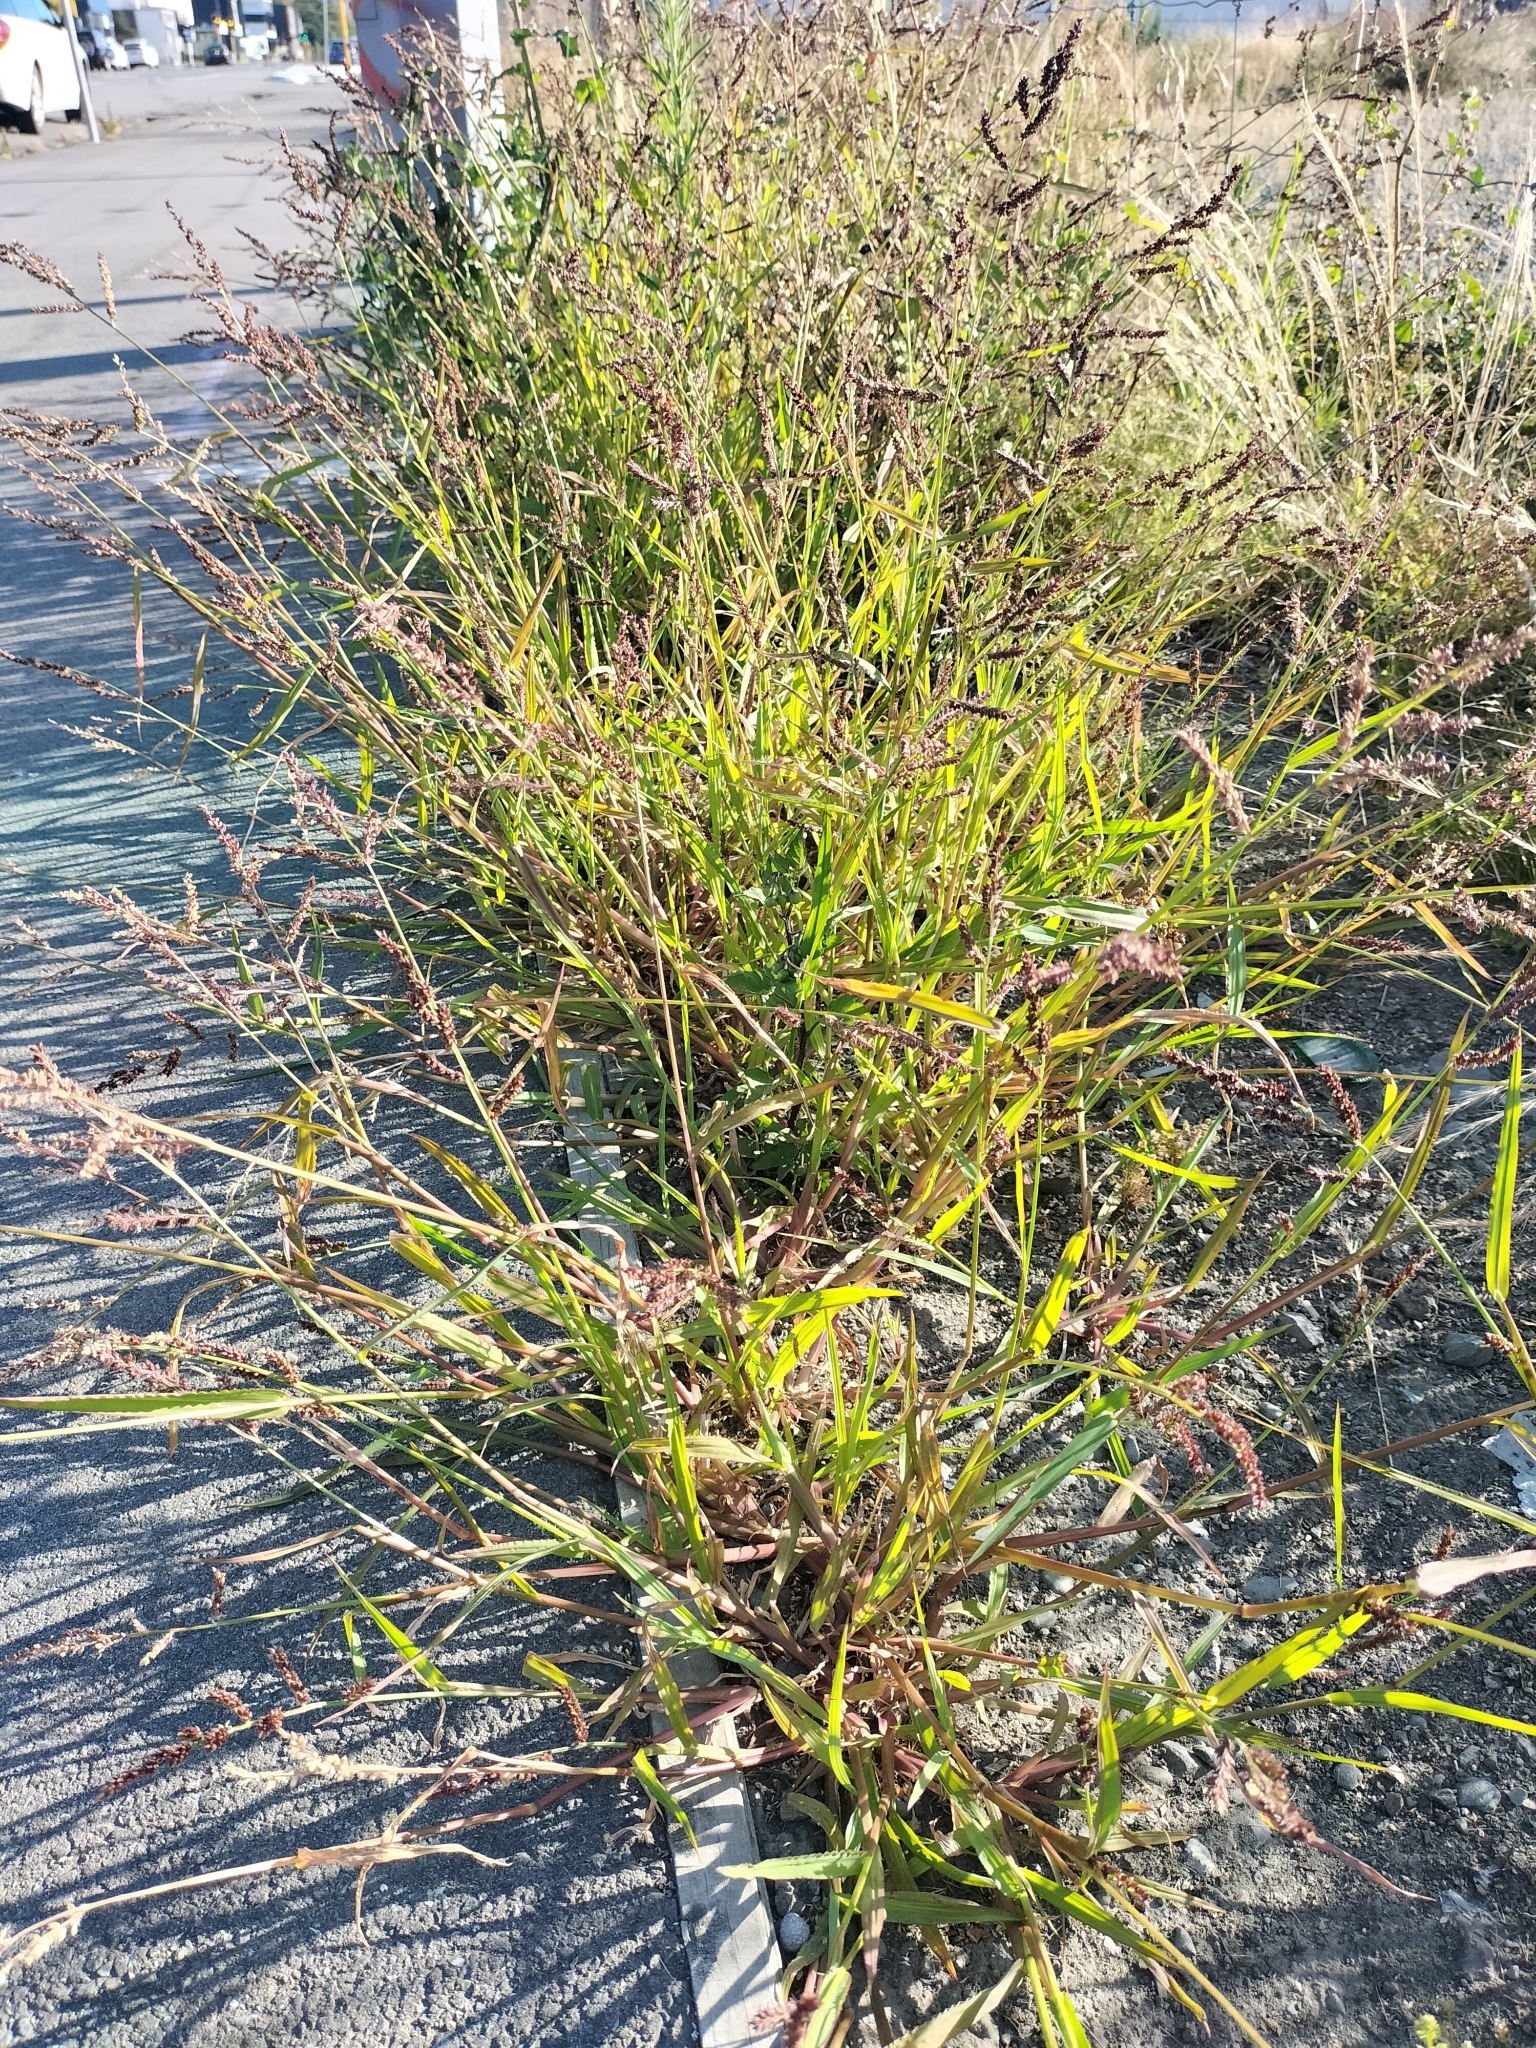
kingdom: Plantae
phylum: Tracheophyta
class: Liliopsida
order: Poales
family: Poaceae
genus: Echinochloa
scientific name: Echinochloa crus-galli
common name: Cockspur
